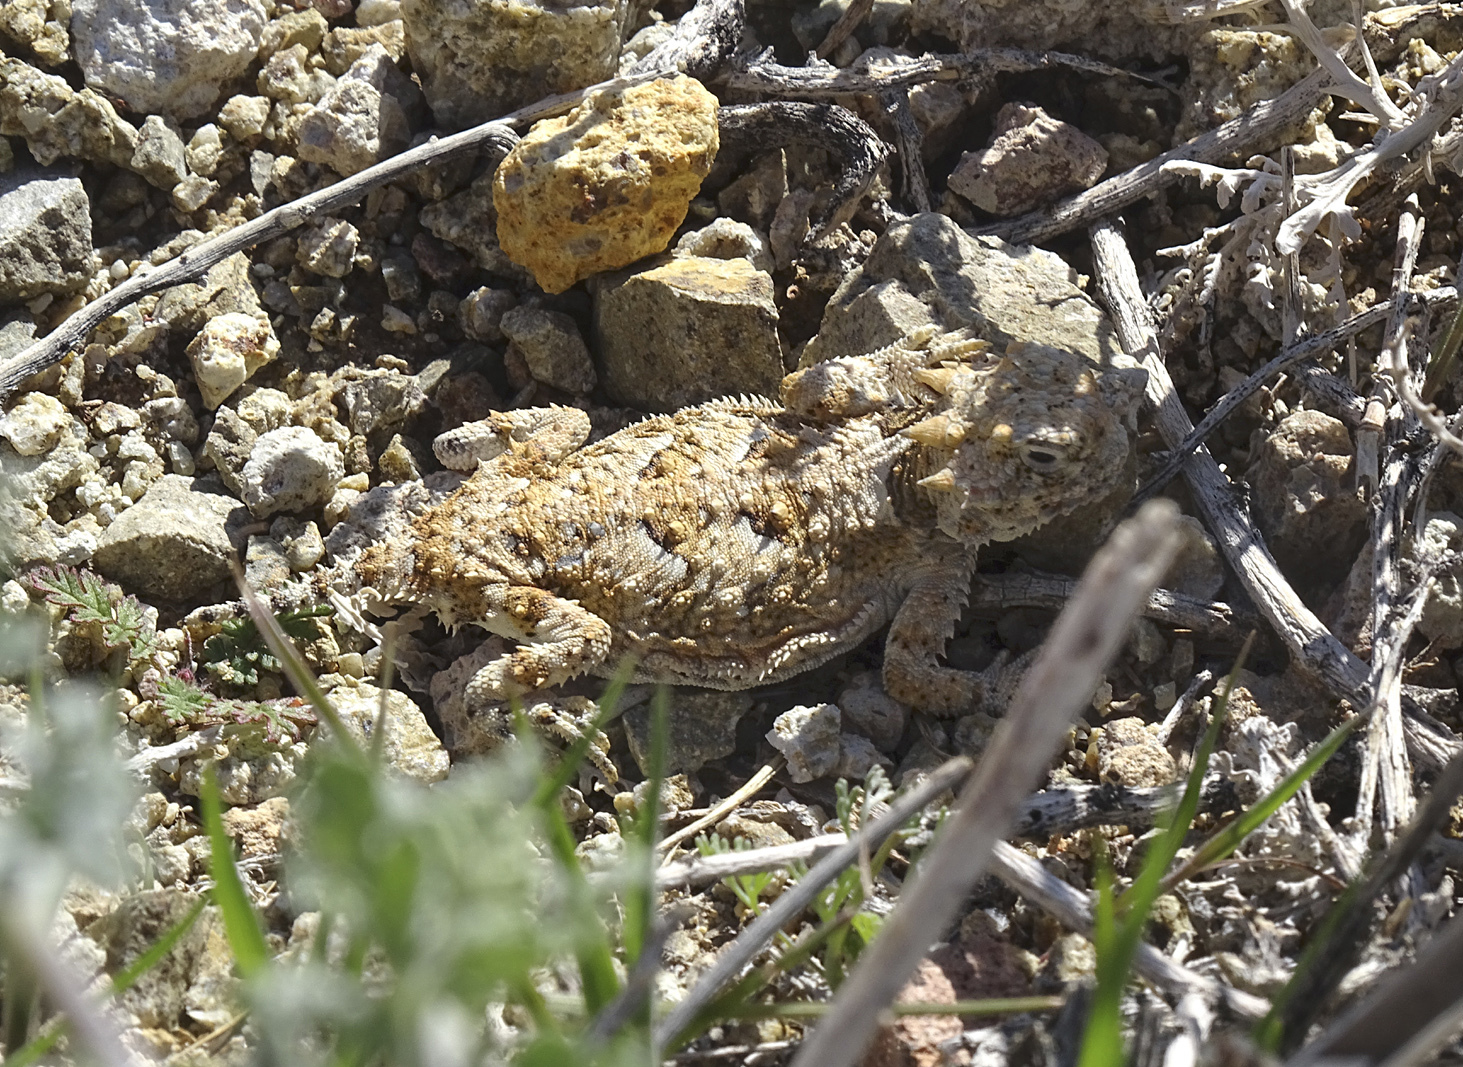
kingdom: Animalia
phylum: Chordata
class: Squamata
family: Phrynosomatidae
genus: Phrynosoma
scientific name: Phrynosoma platyrhinos
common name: Desert horned lizard
